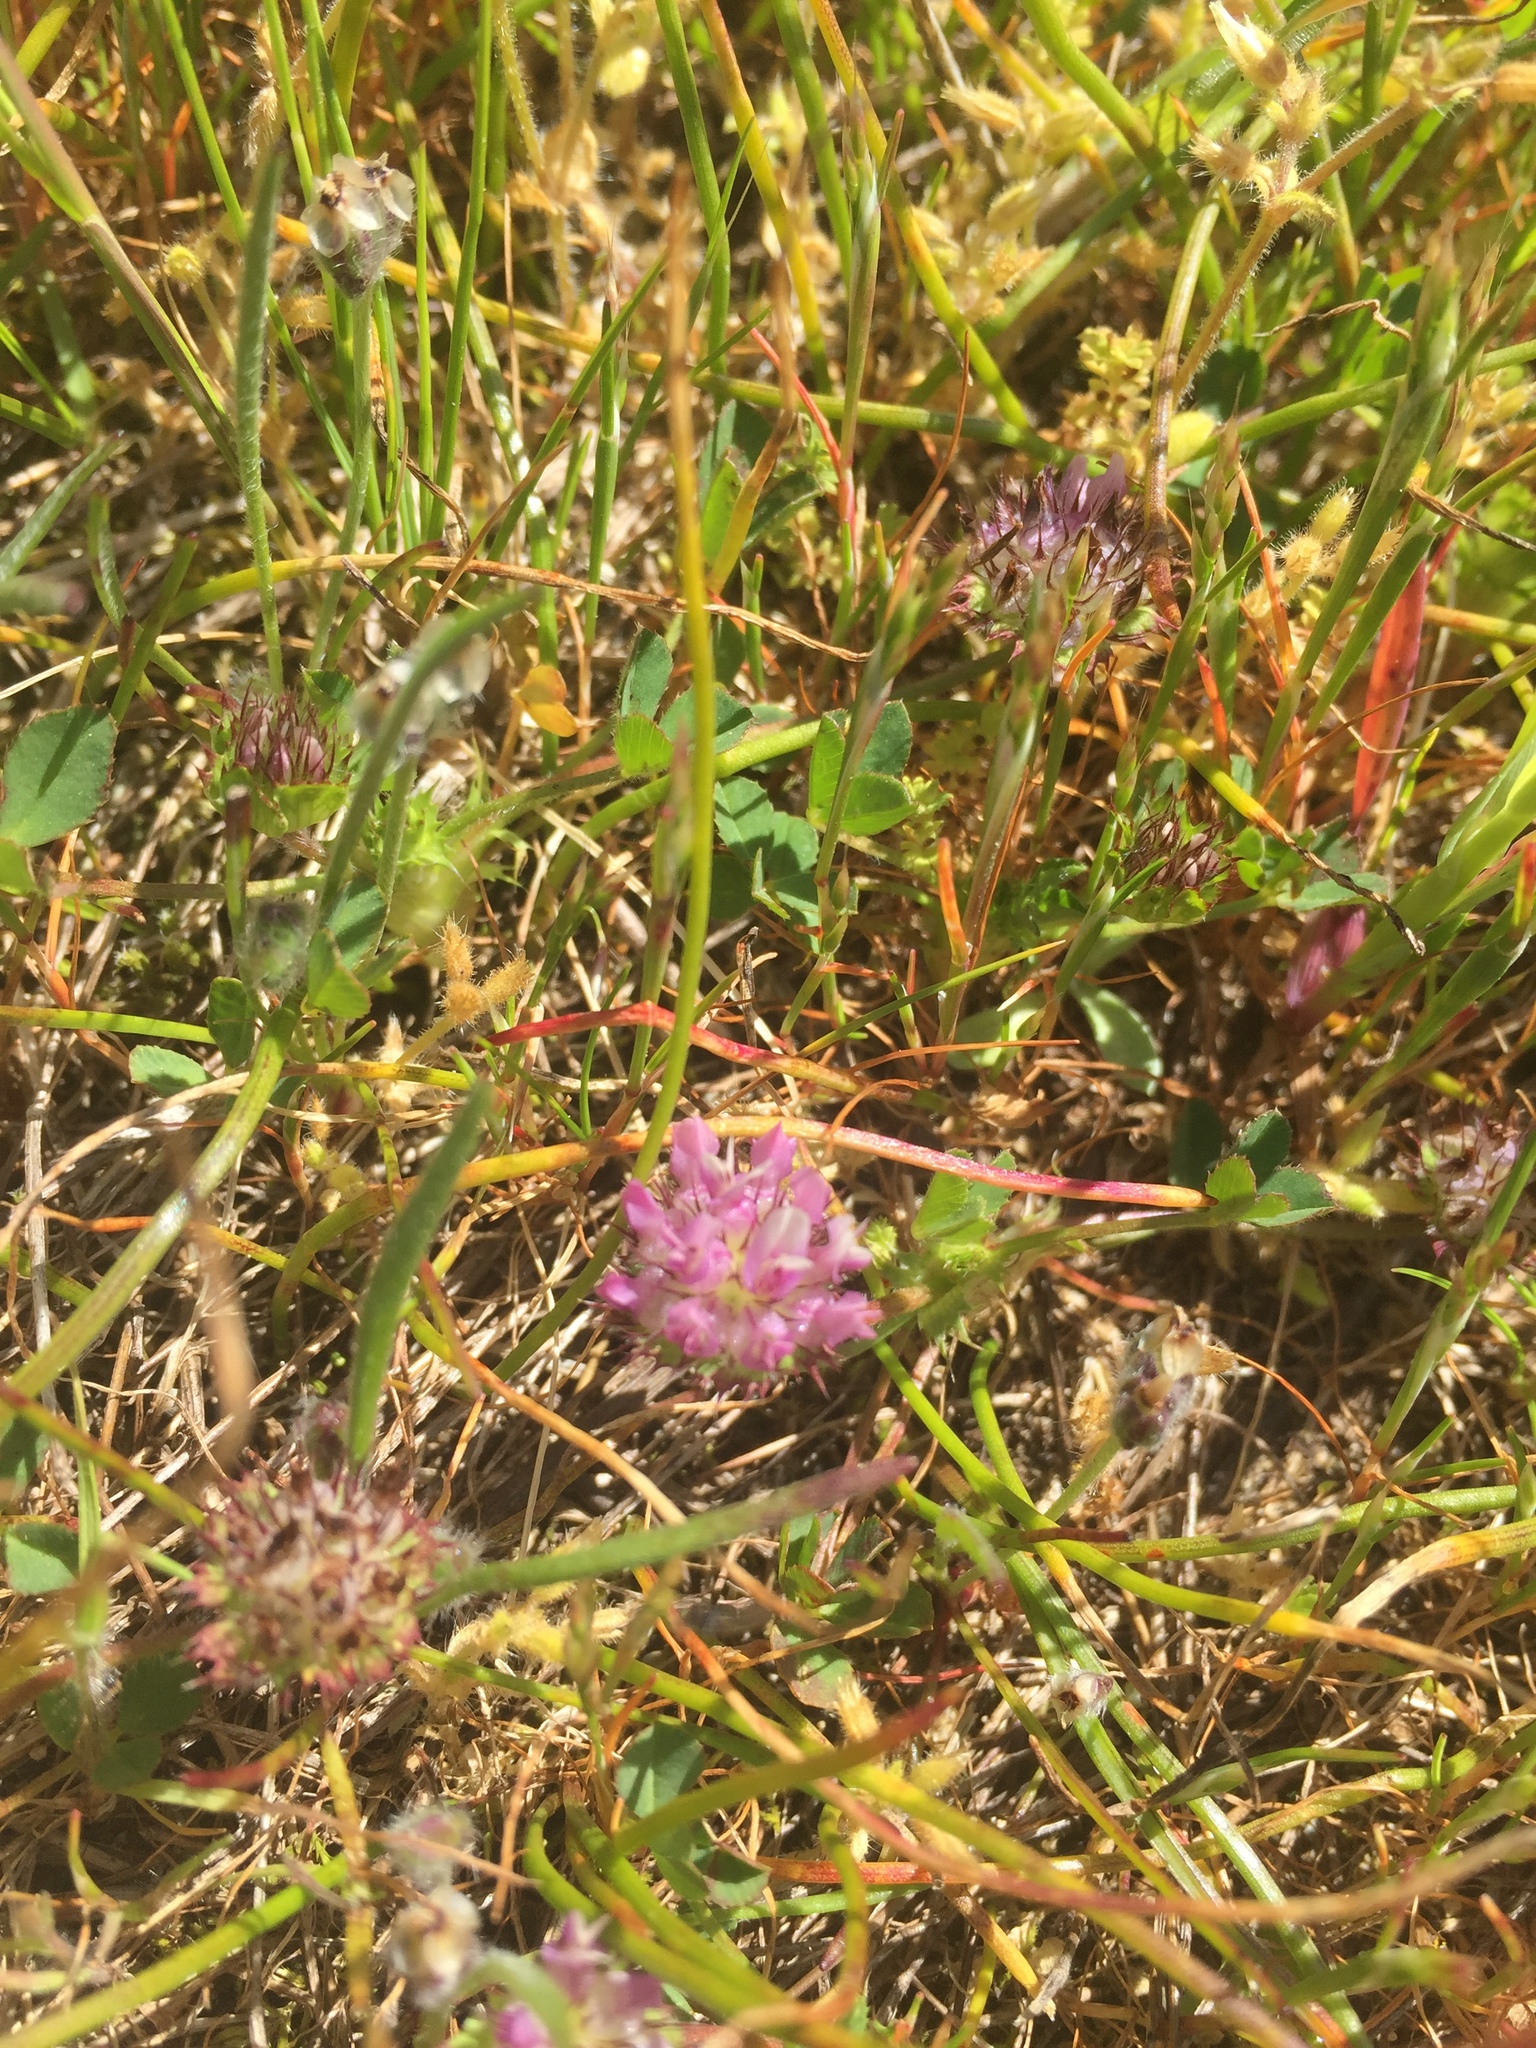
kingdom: Plantae
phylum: Tracheophyta
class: Magnoliopsida
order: Fabales
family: Fabaceae
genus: Trifolium
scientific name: Trifolium barbigerum
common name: Bearded clover
